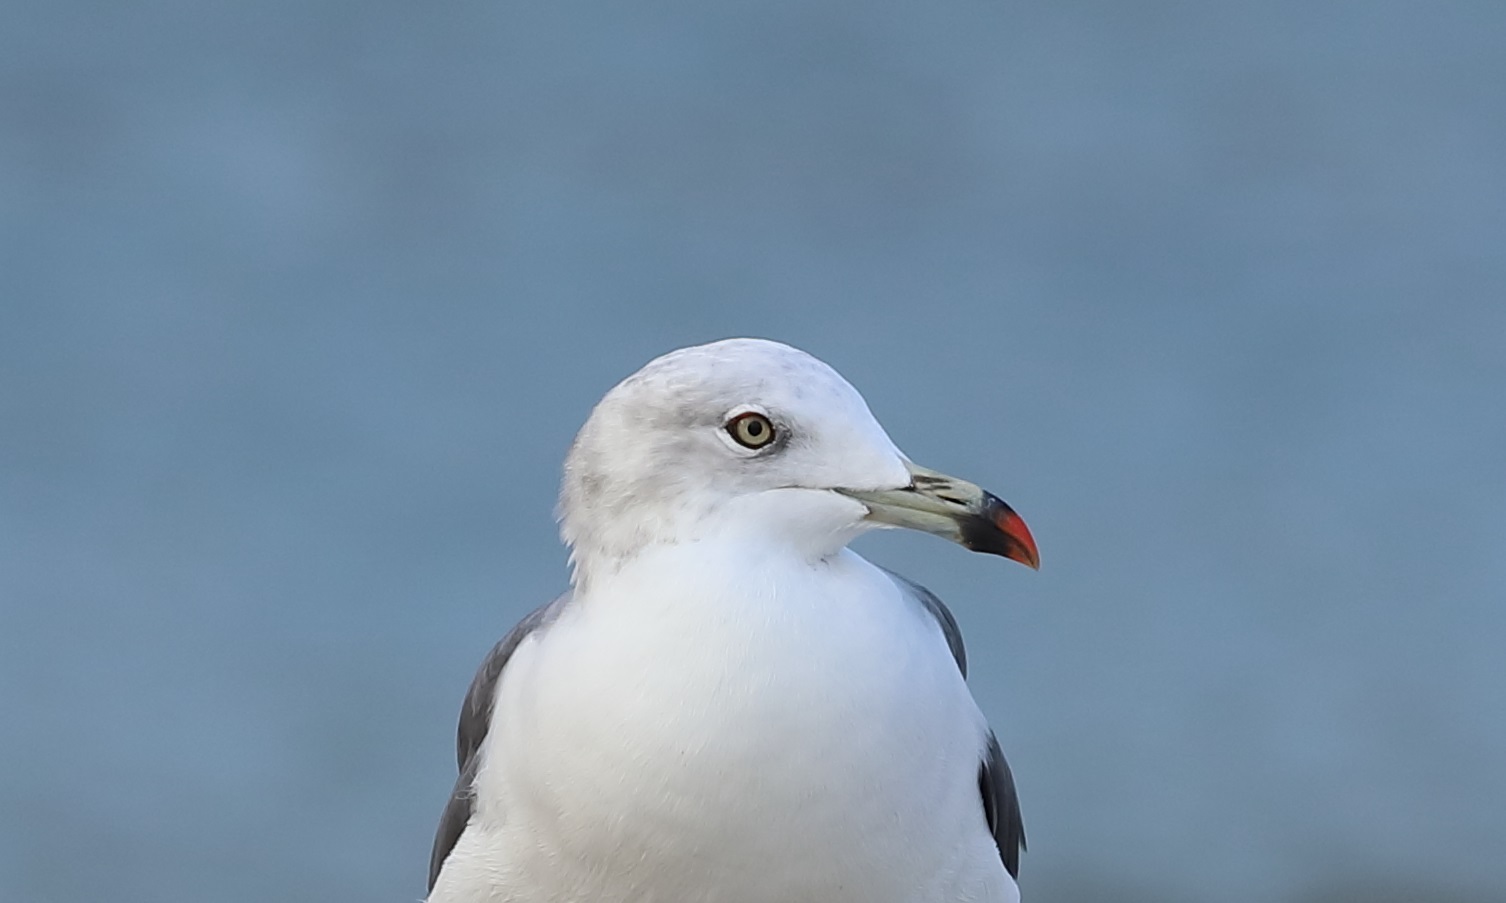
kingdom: Animalia
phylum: Chordata
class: Aves
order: Charadriiformes
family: Laridae
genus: Larus
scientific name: Larus crassirostris
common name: Black-tailed gull
